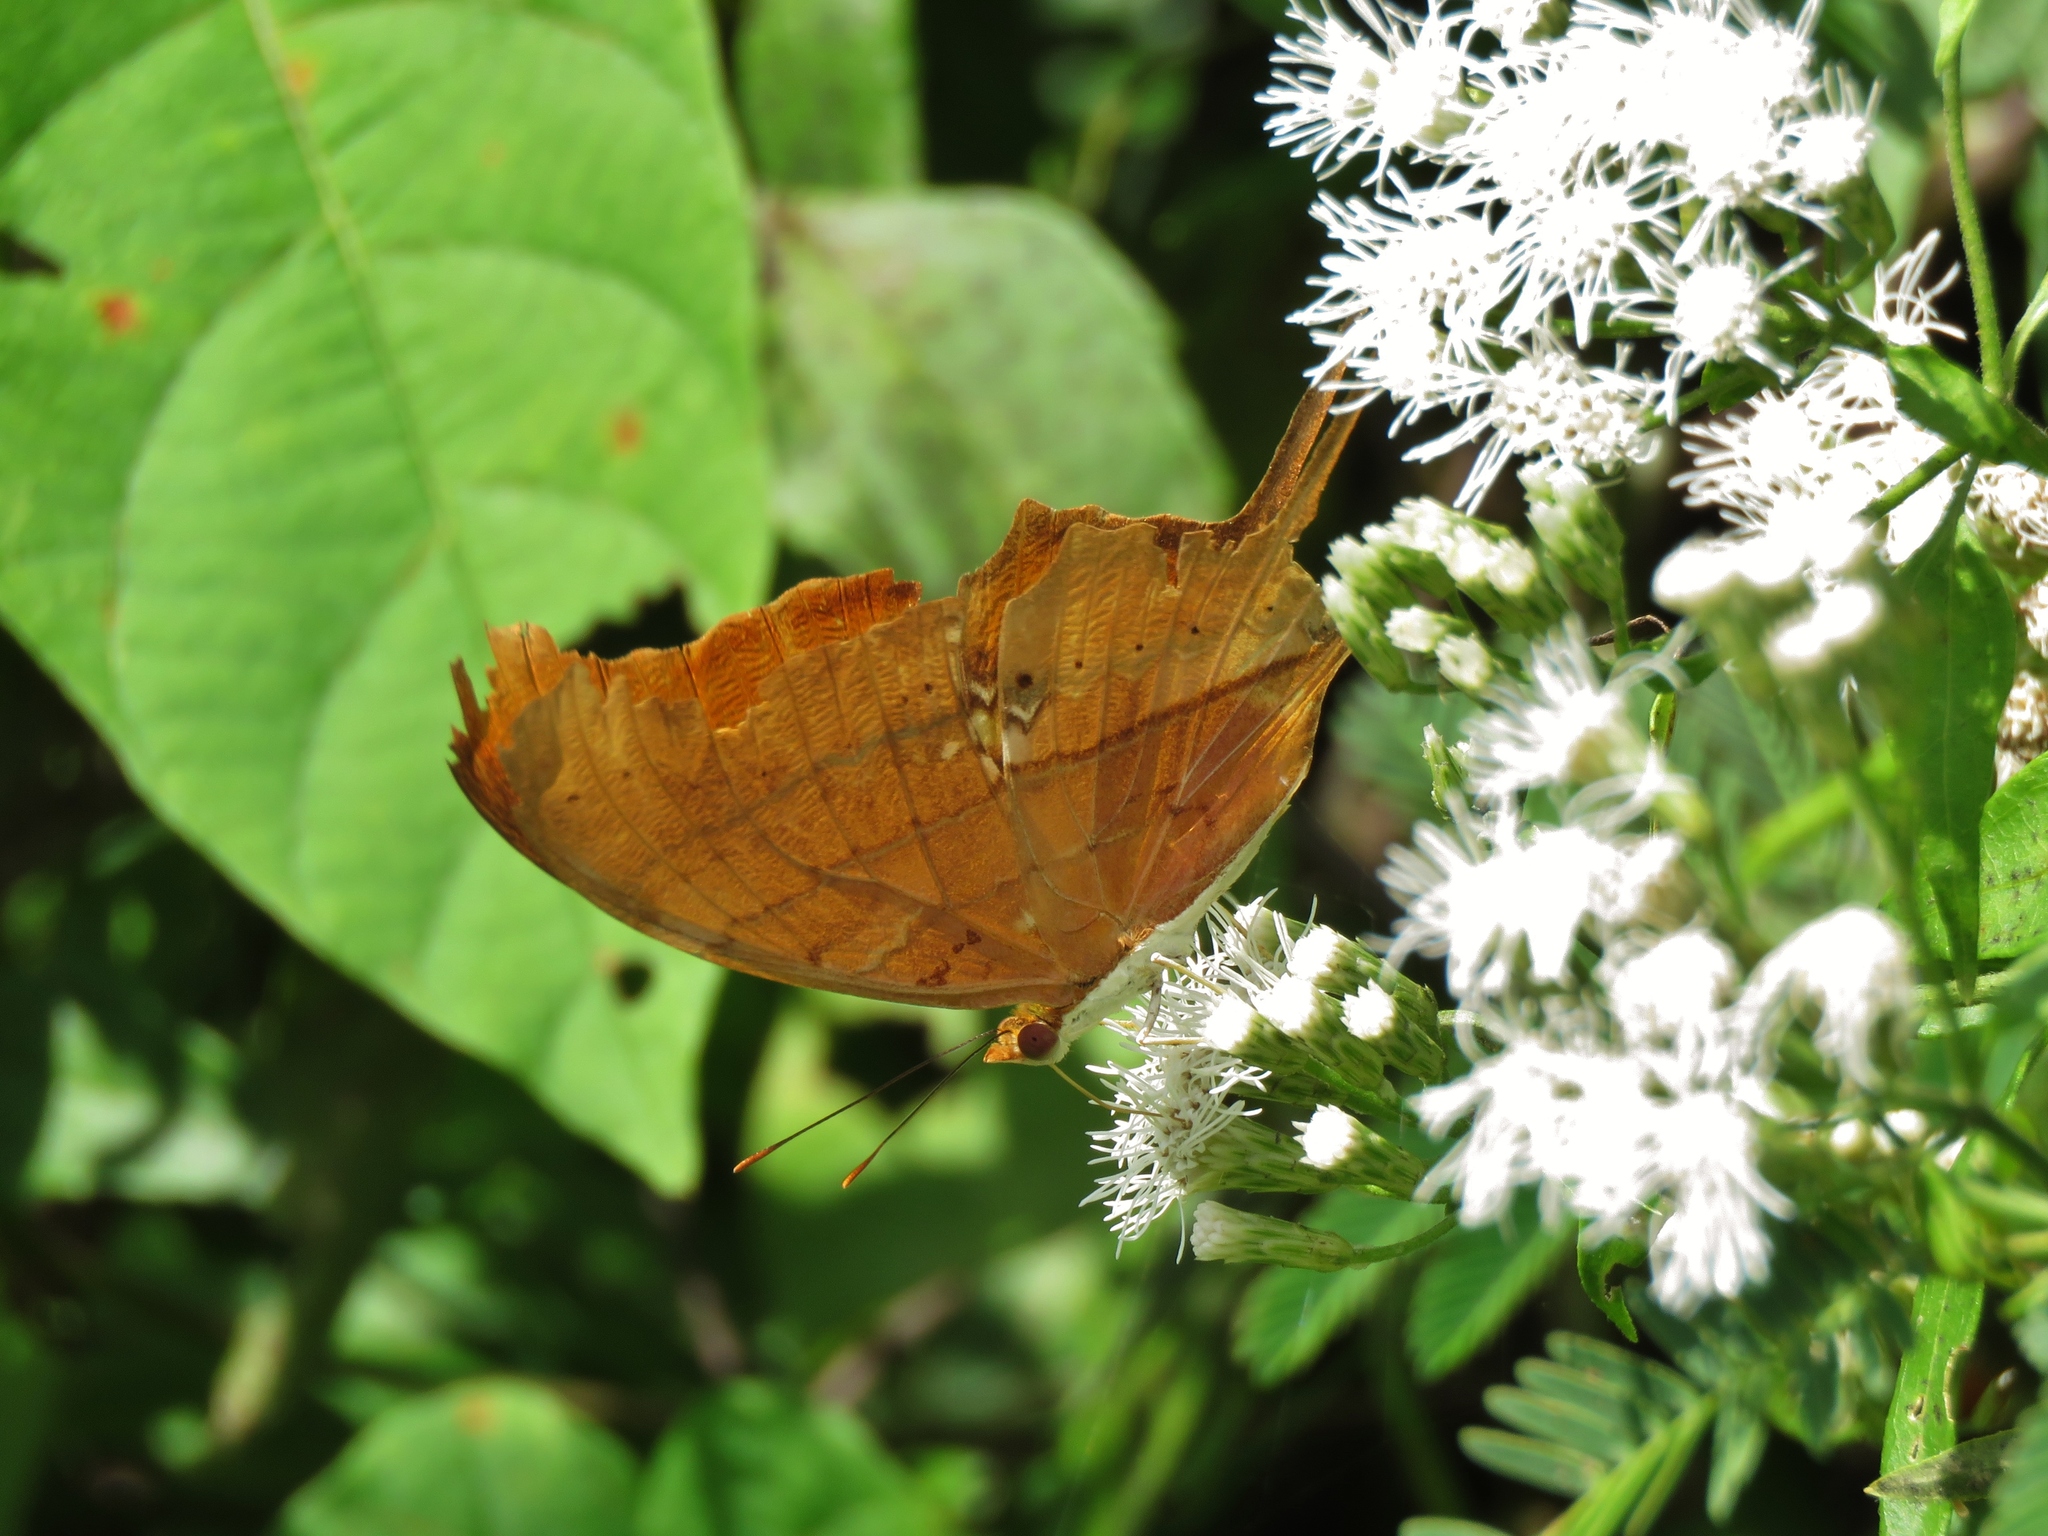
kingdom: Animalia
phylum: Arthropoda
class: Insecta
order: Lepidoptera
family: Nymphalidae
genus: Marpesia
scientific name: Marpesia petreus
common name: Red dagger wing
